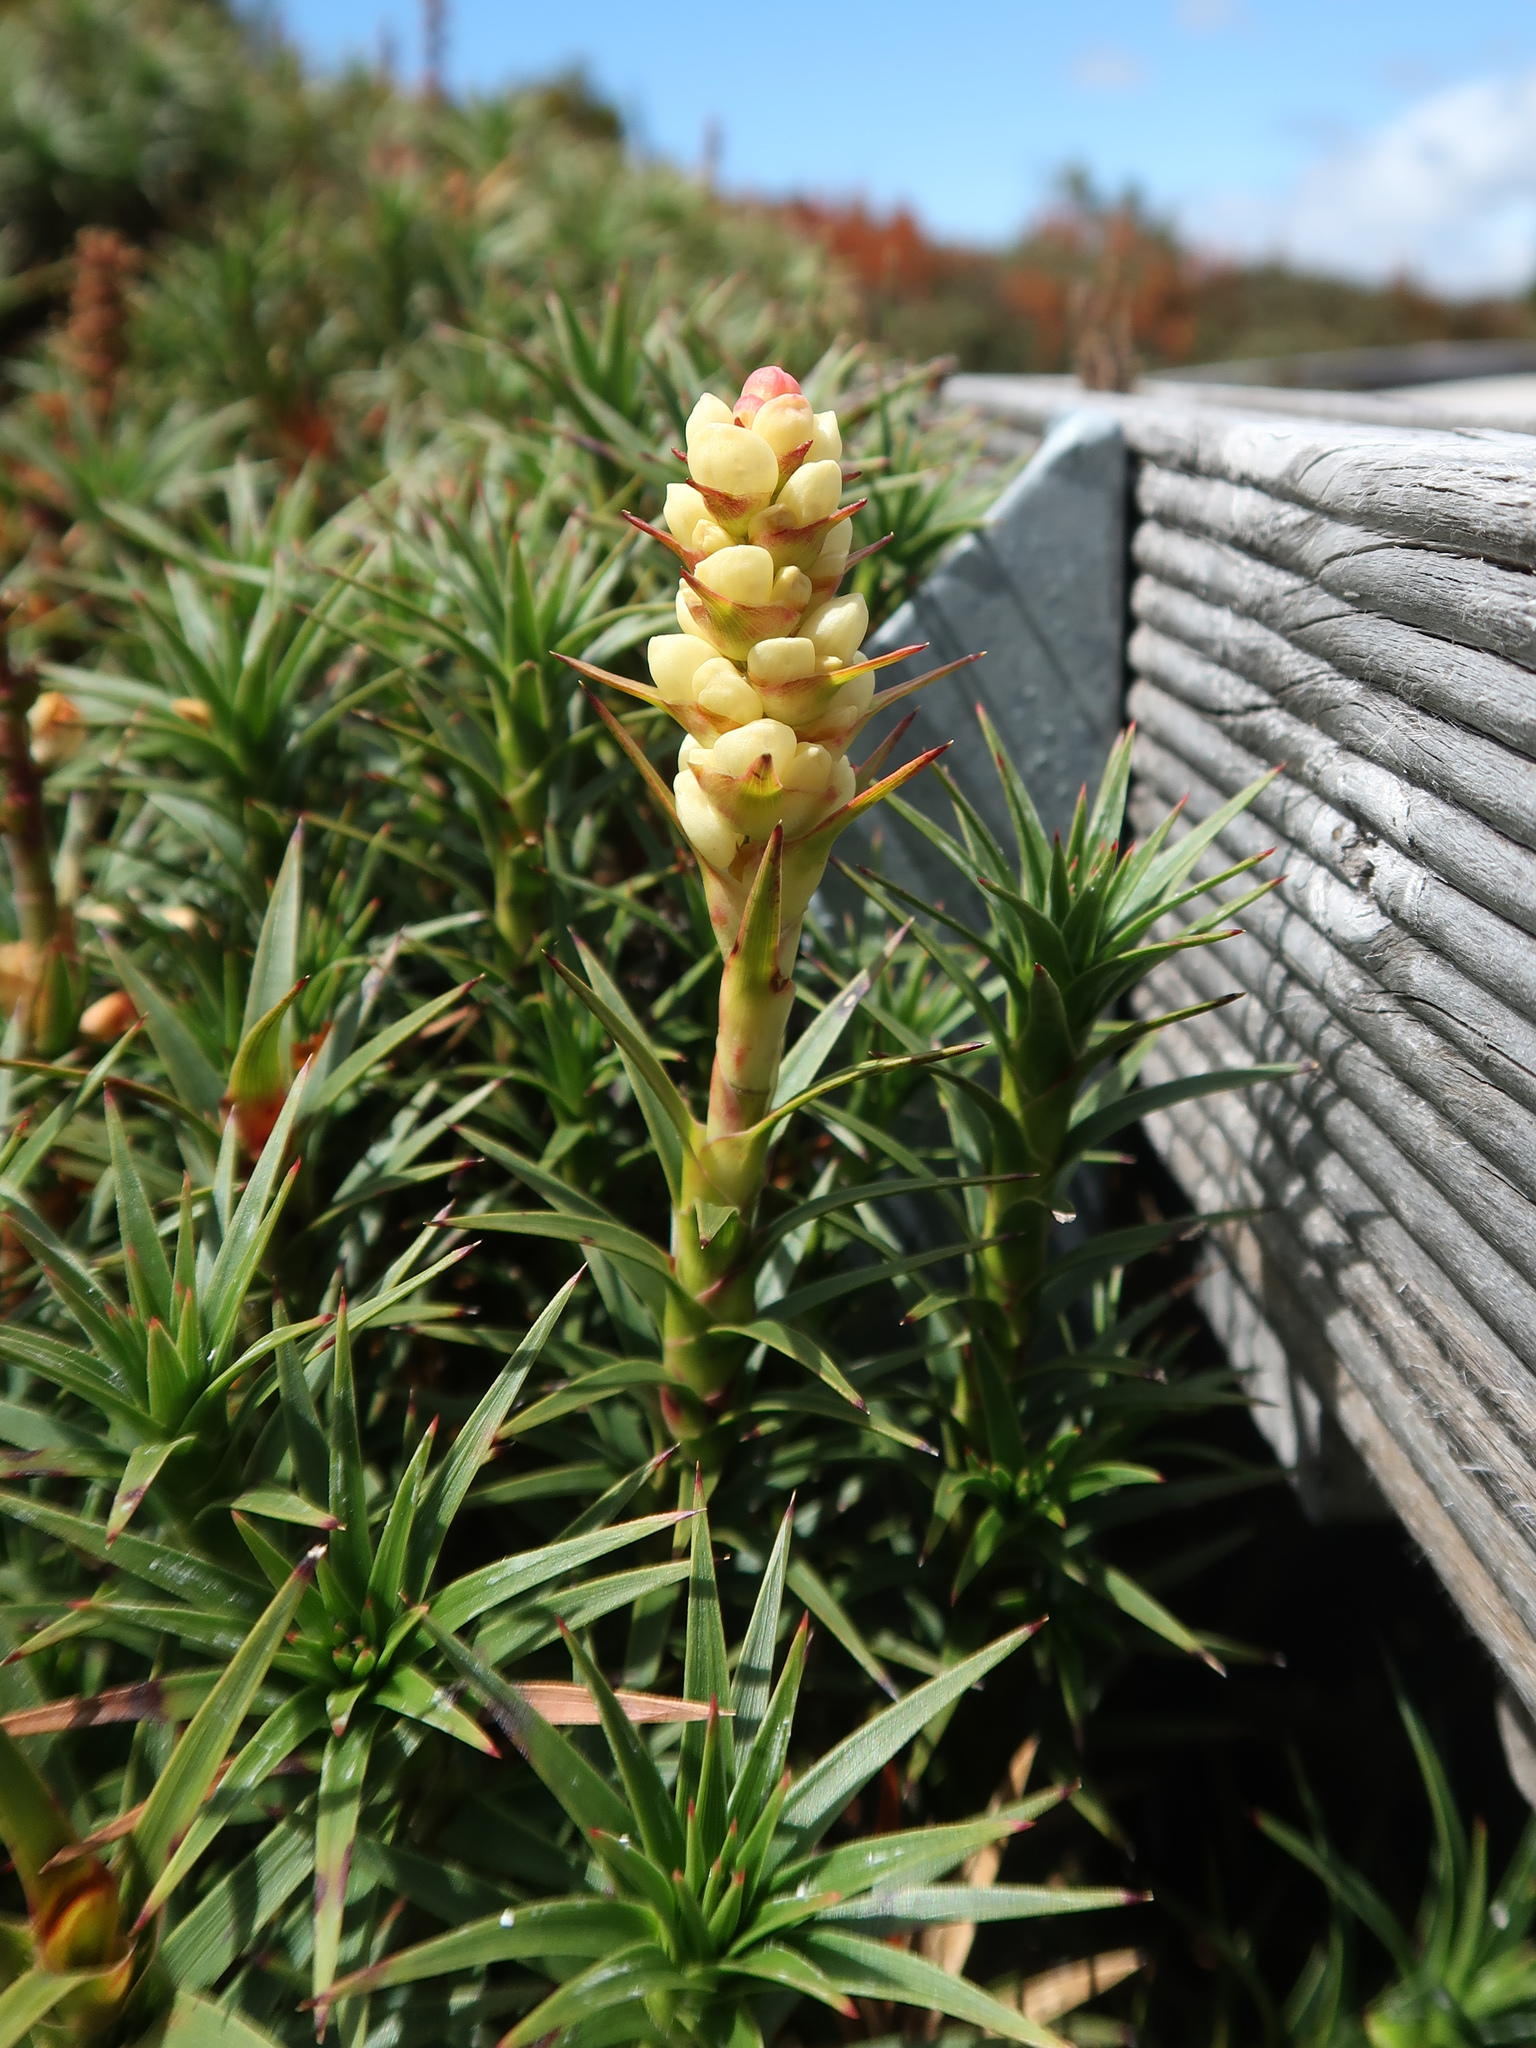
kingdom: Plantae
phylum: Tracheophyta
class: Magnoliopsida
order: Ericales
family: Ericaceae
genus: Dracophyllum
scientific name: Dracophyllum persistentifolium
